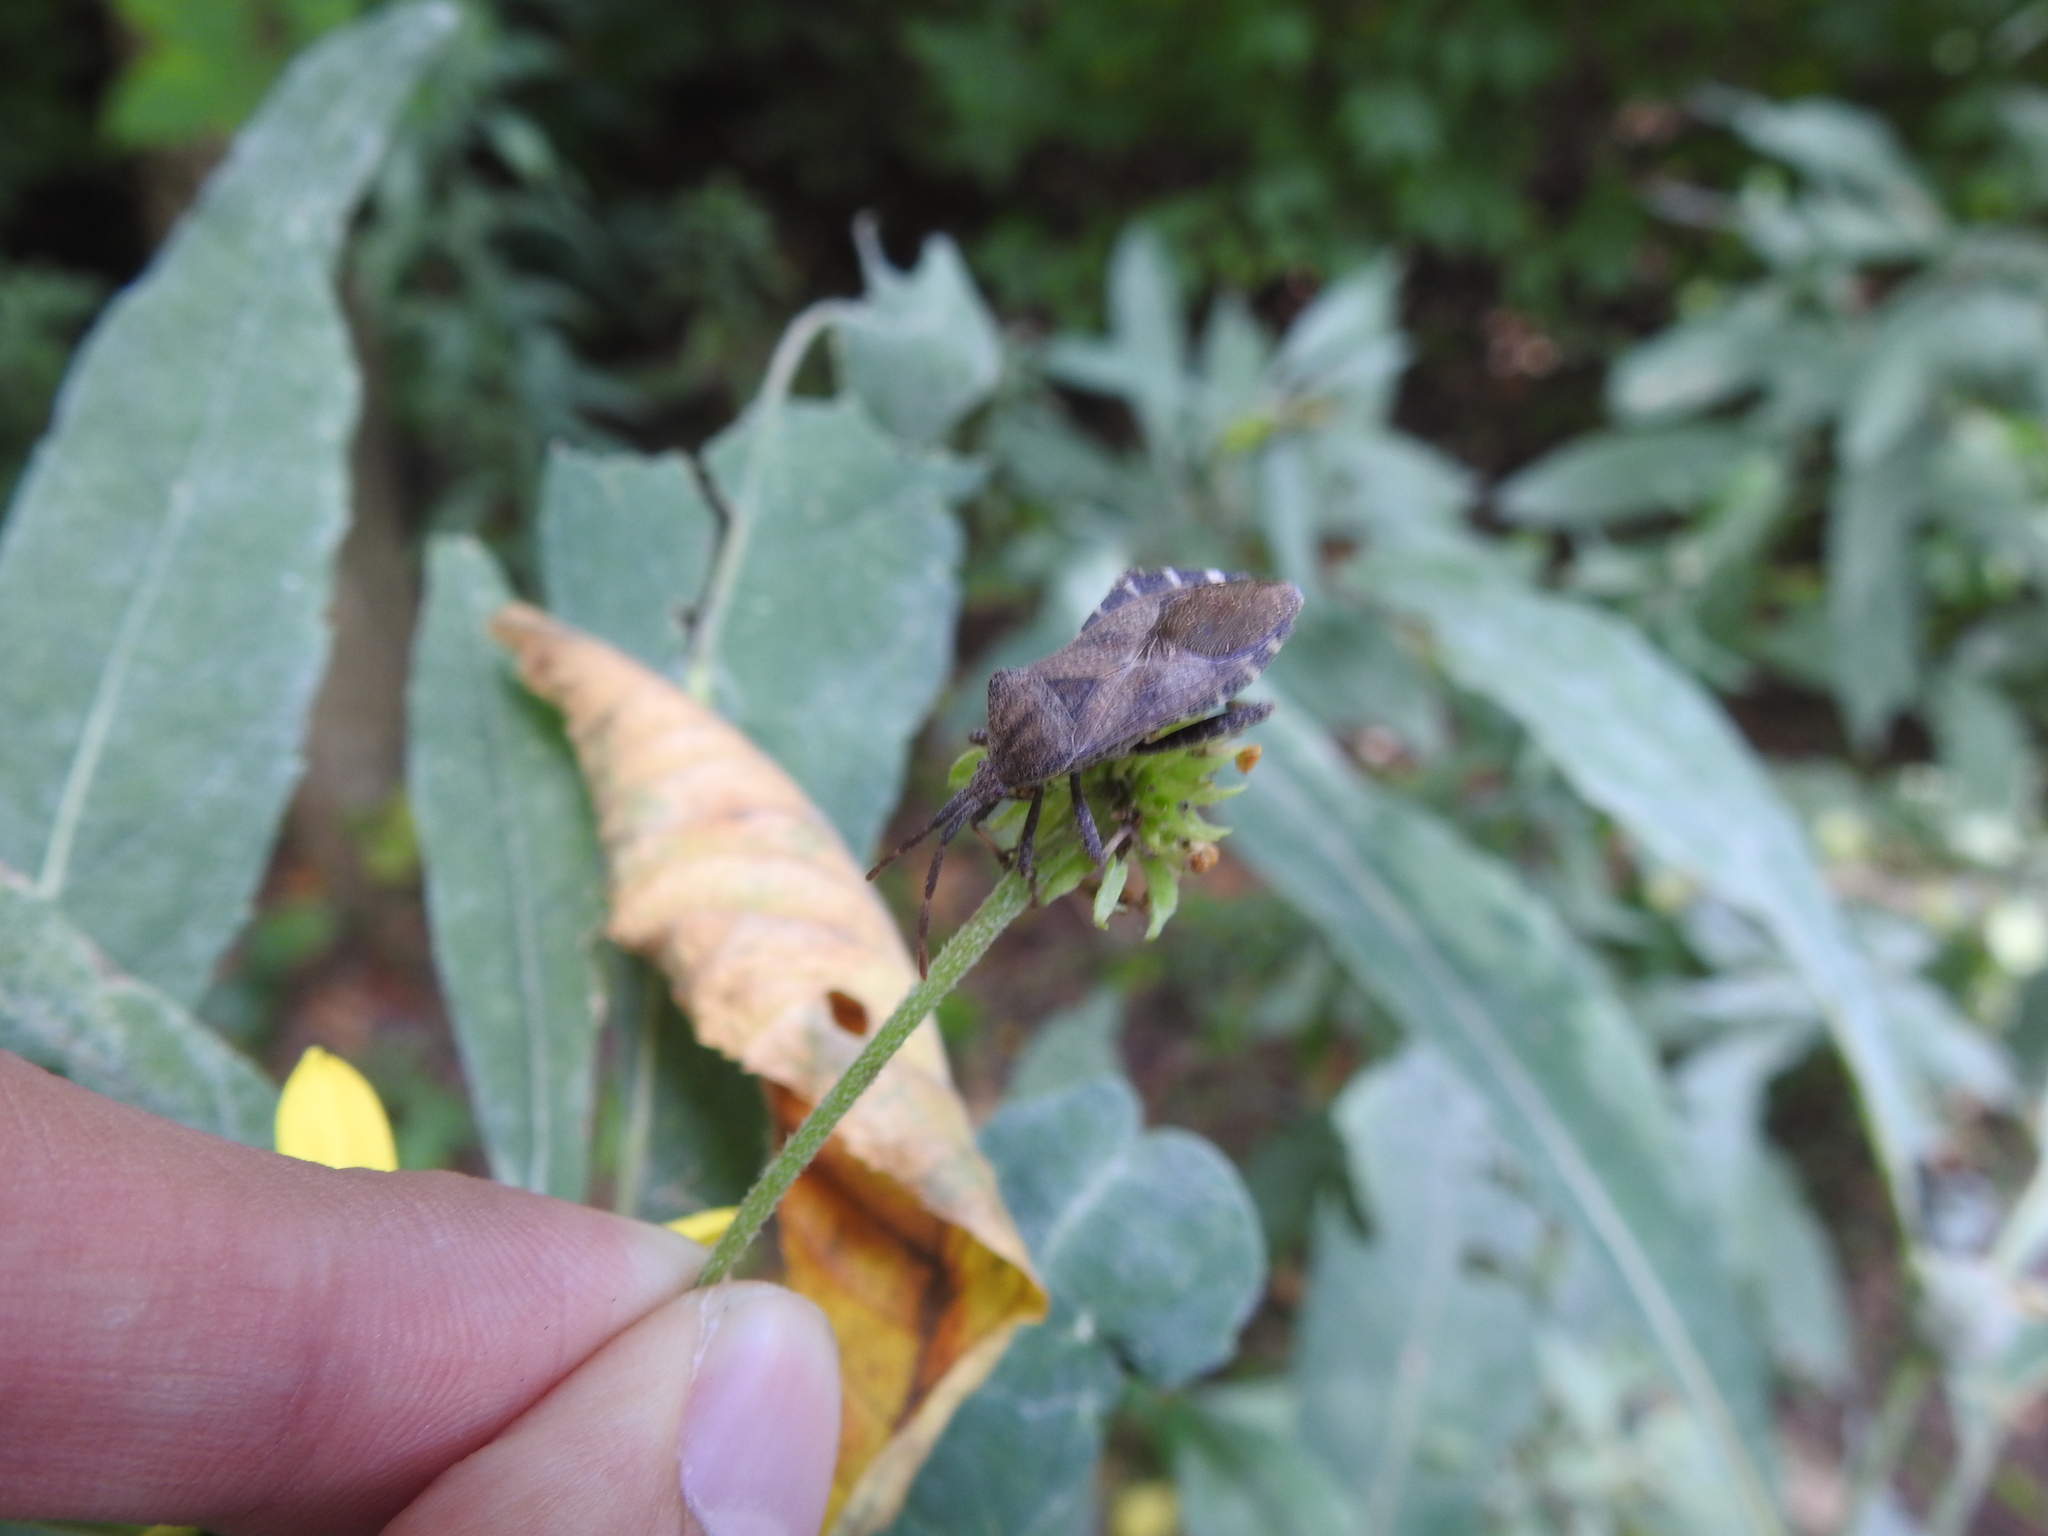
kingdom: Animalia
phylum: Arthropoda
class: Insecta
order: Hemiptera
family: Coreidae
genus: Piezogaster
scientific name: Piezogaster calcarator
